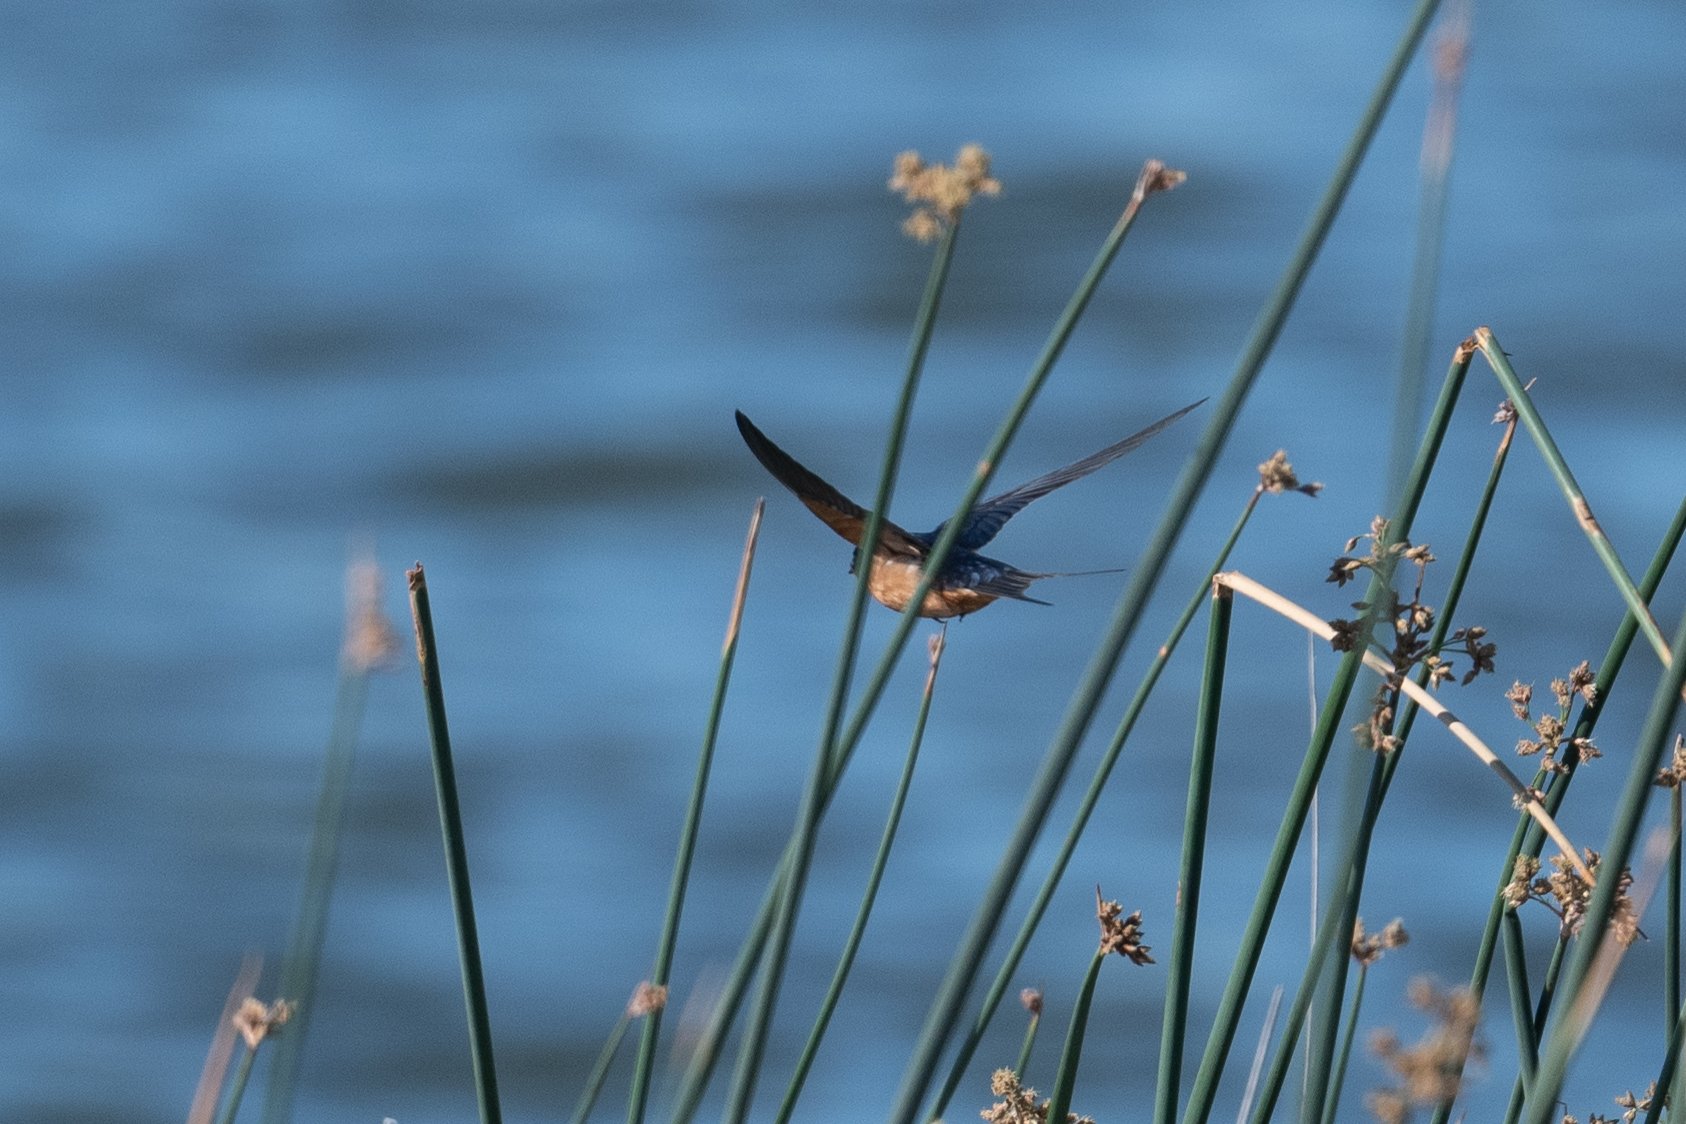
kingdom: Animalia
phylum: Chordata
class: Aves
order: Passeriformes
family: Hirundinidae
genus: Hirundo
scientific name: Hirundo rustica
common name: Barn swallow
